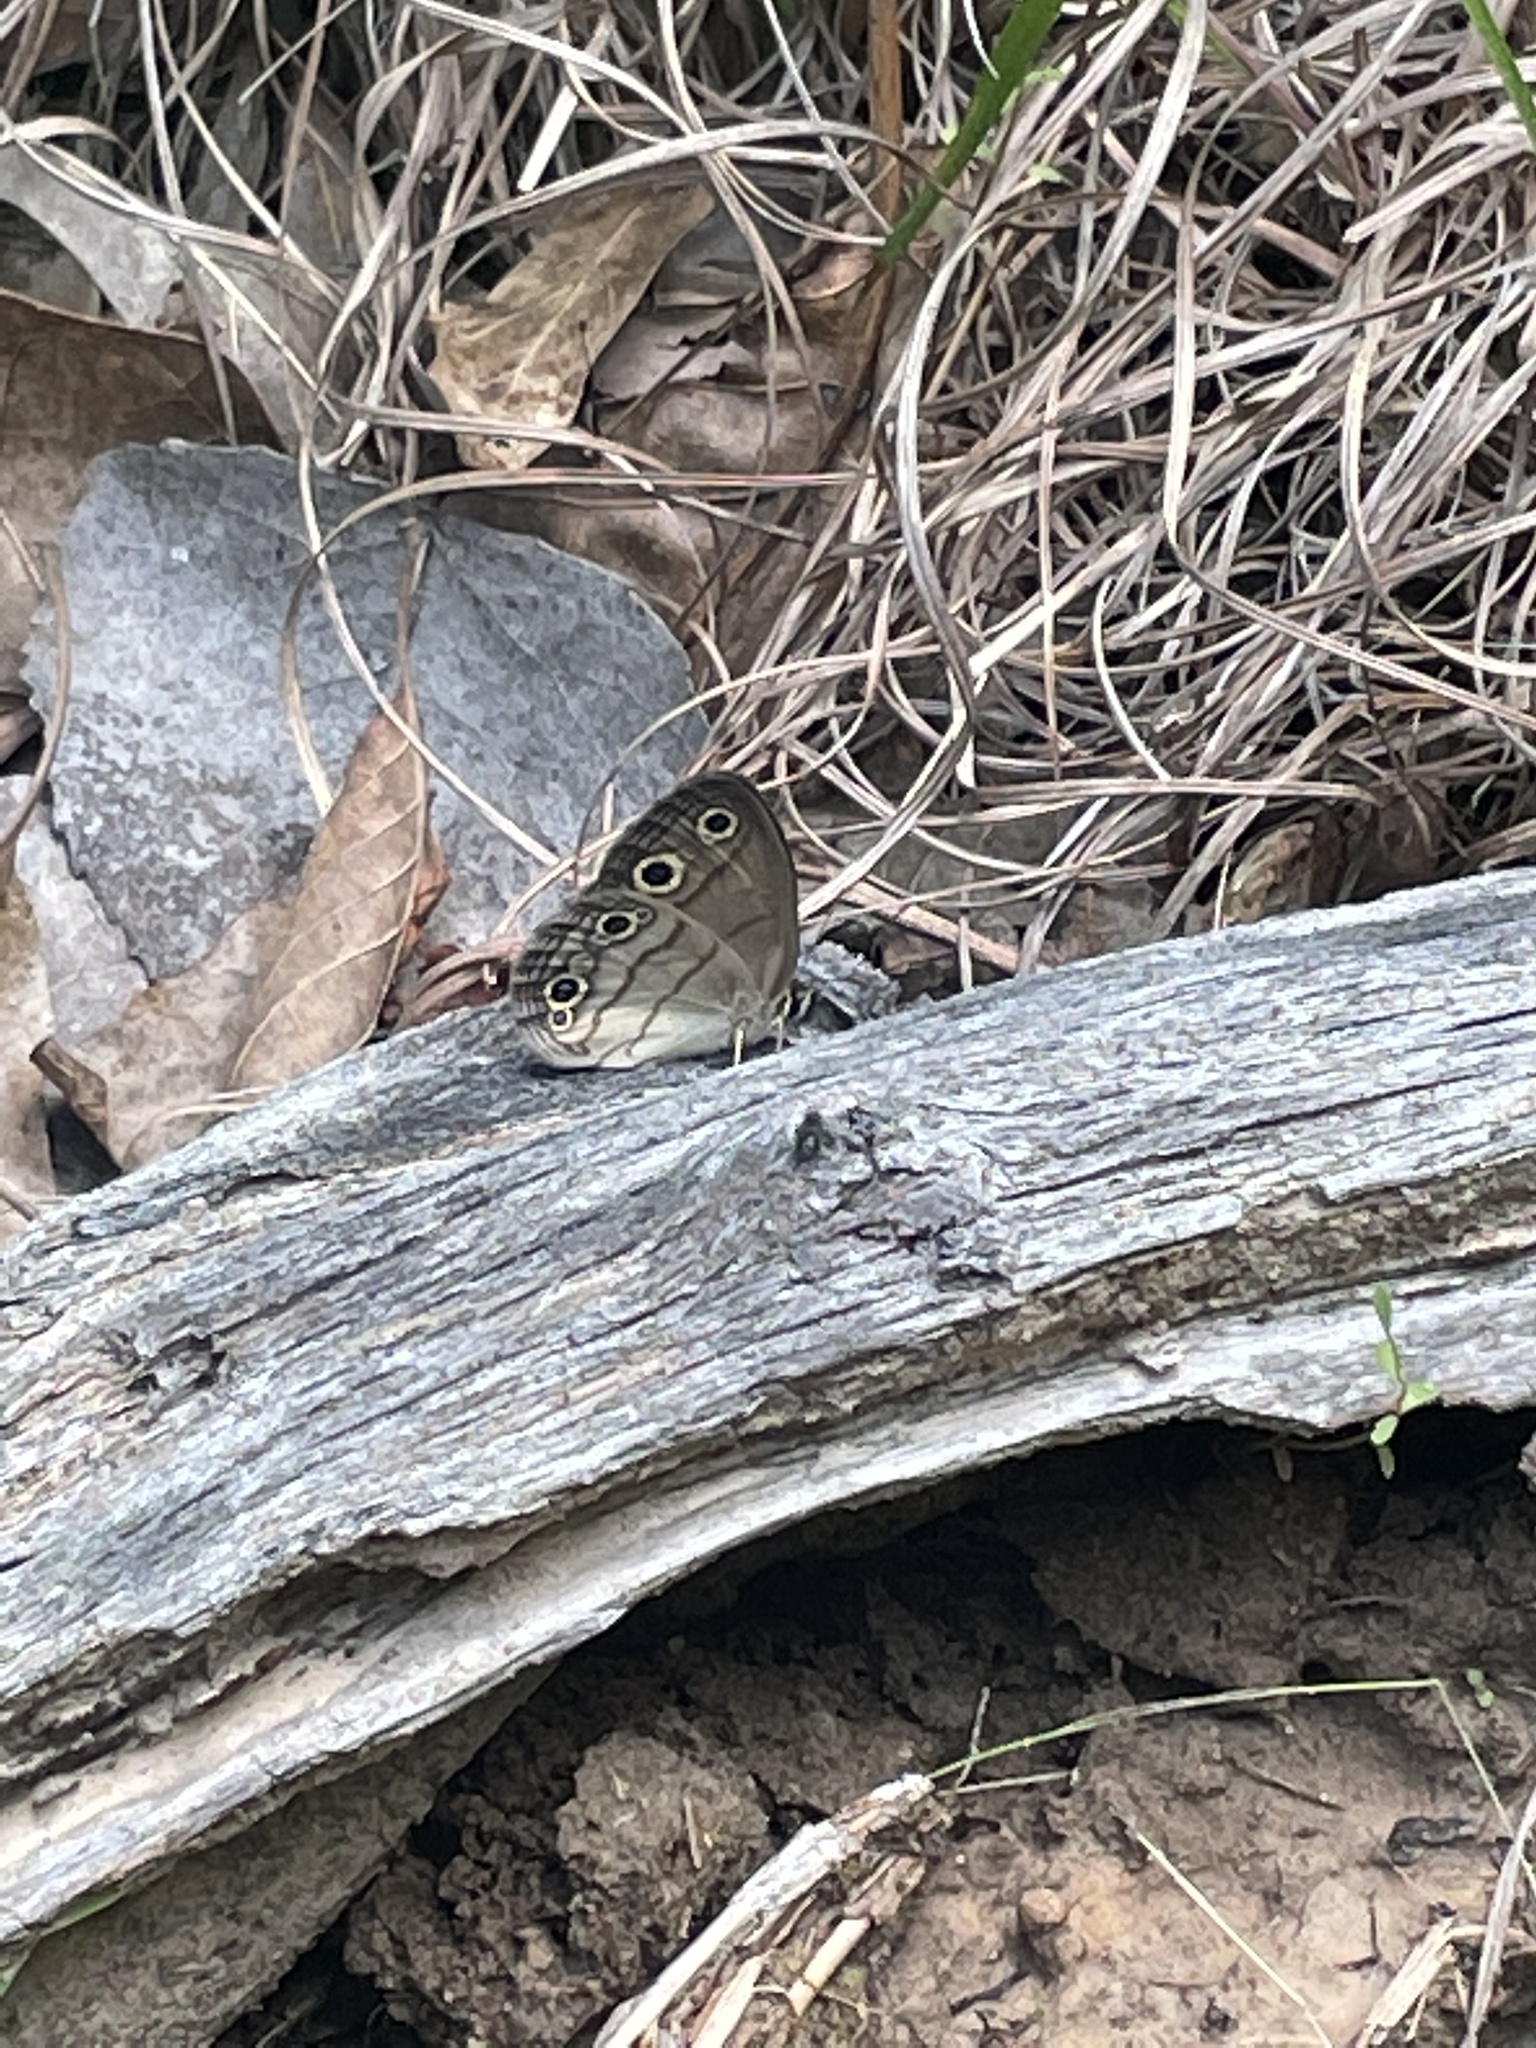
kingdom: Animalia
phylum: Arthropoda
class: Insecta
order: Lepidoptera
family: Nymphalidae
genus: Euptychia
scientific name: Euptychia cymela
